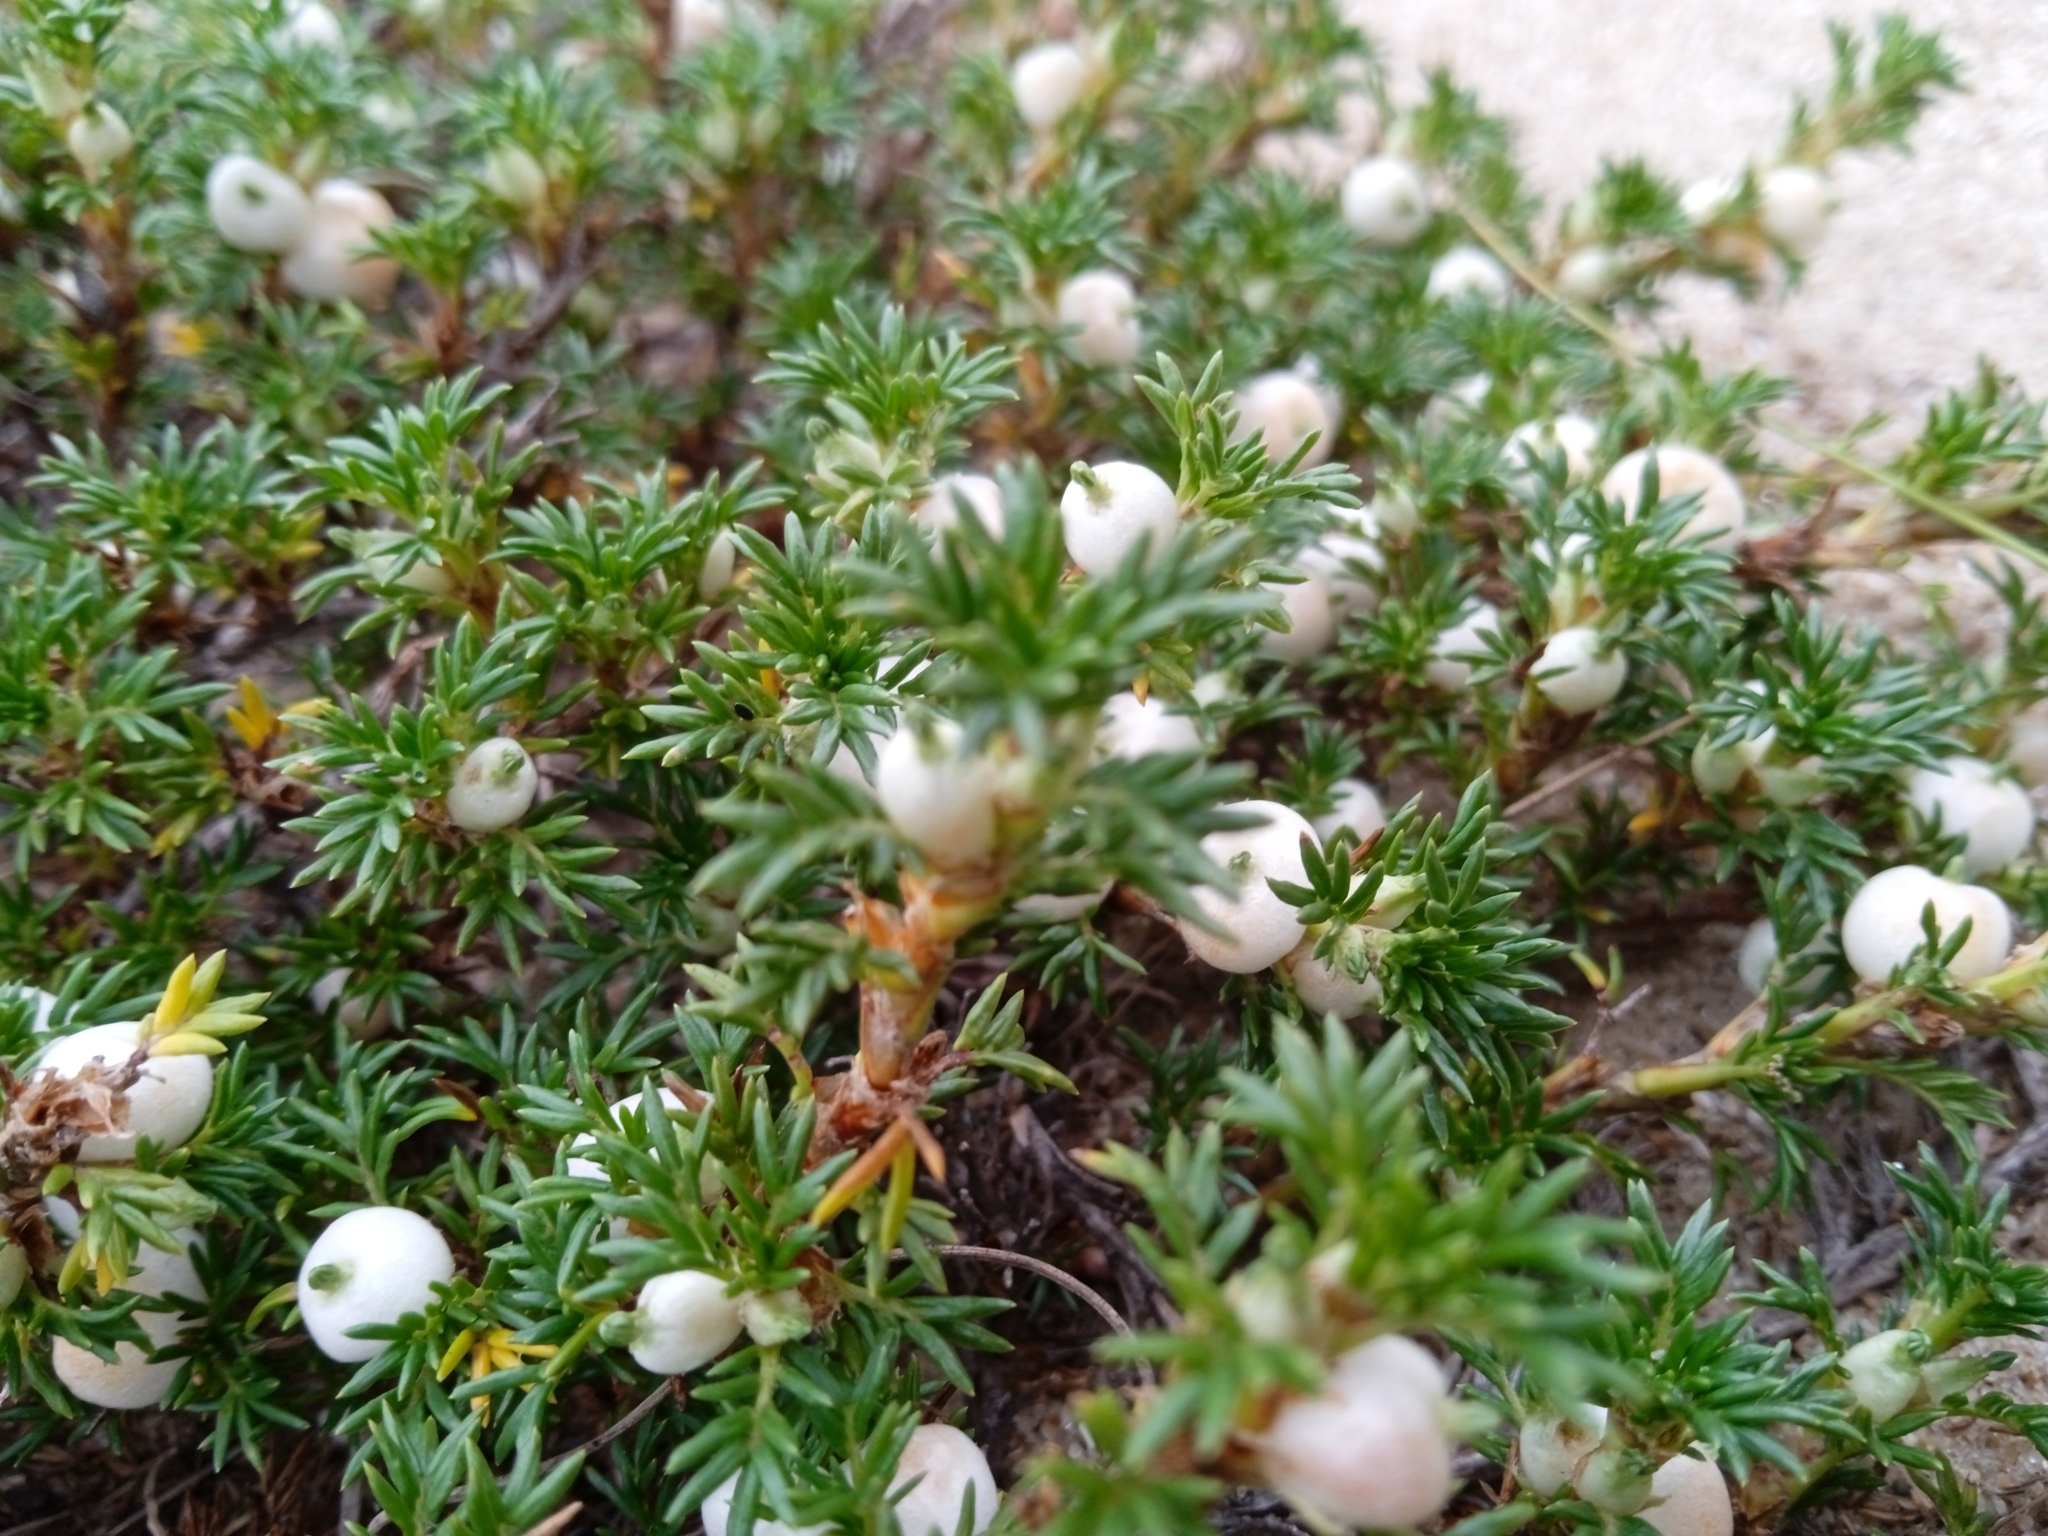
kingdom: Plantae
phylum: Tracheophyta
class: Magnoliopsida
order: Rosales
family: Rosaceae
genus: Margyricarpus
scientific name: Margyricarpus pinnatus
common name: Pearlfruit
